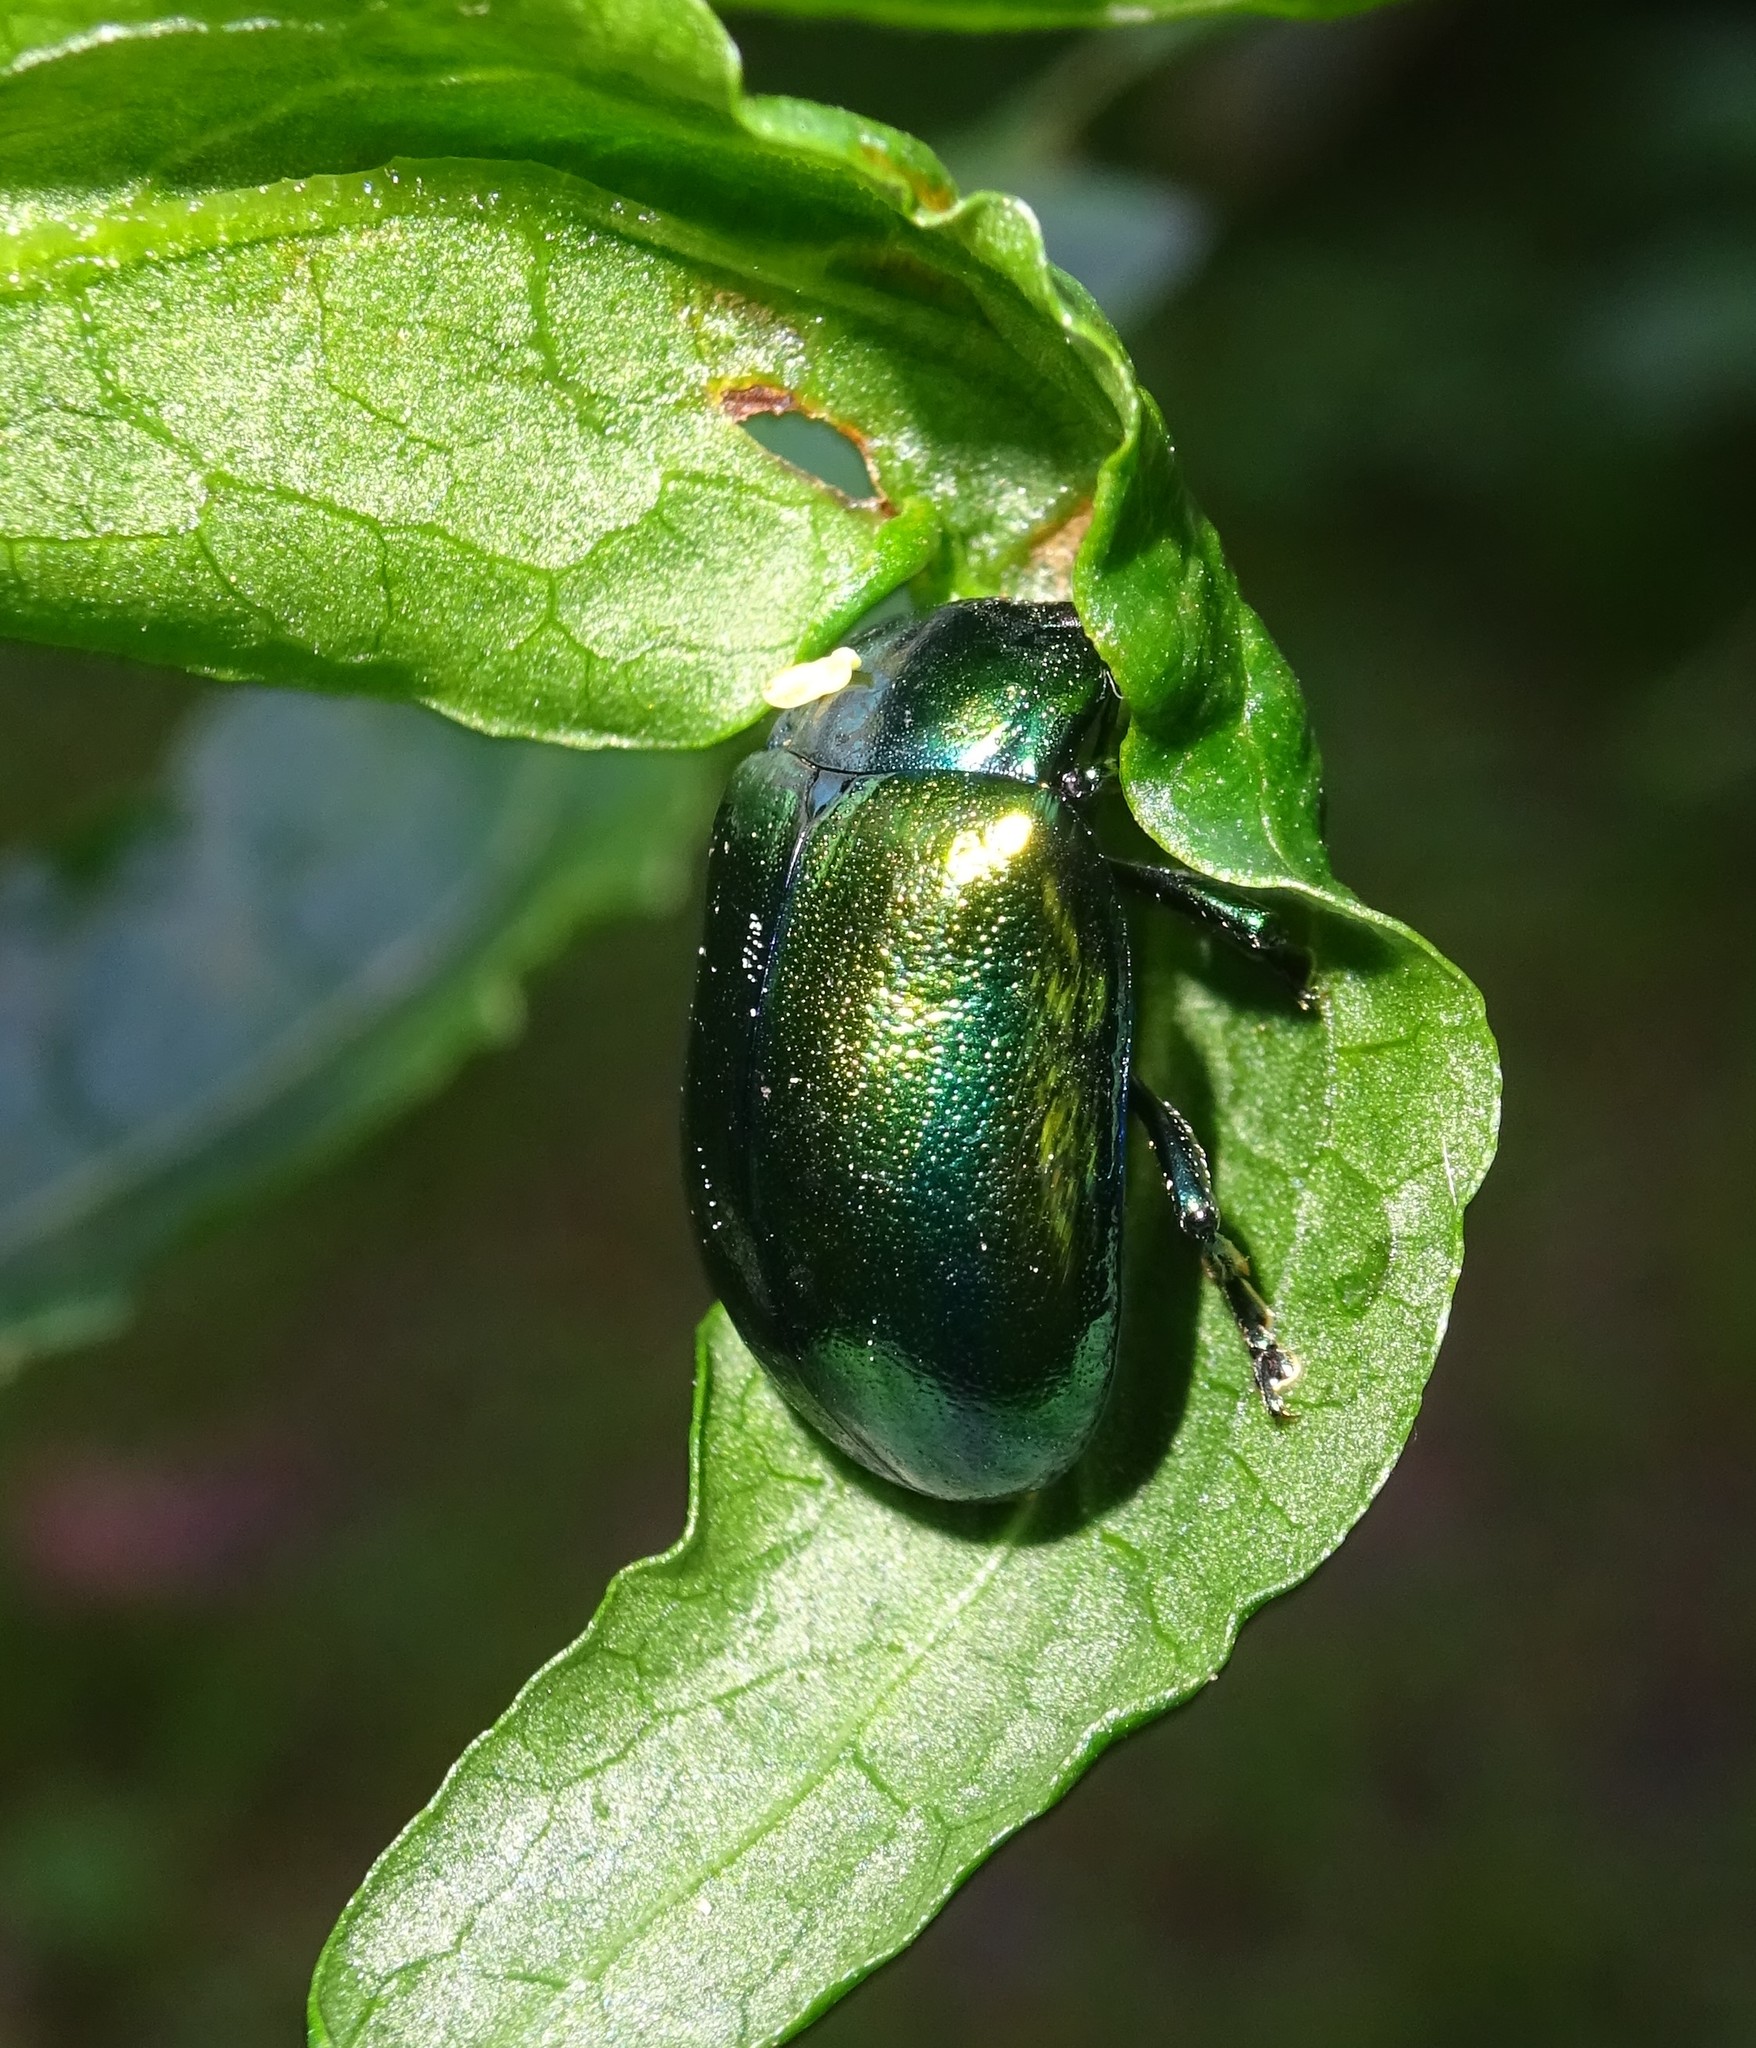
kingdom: Animalia
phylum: Arthropoda
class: Insecta
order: Coleoptera
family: Chrysomelidae
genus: Plagiosterna
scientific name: Plagiosterna aenea
